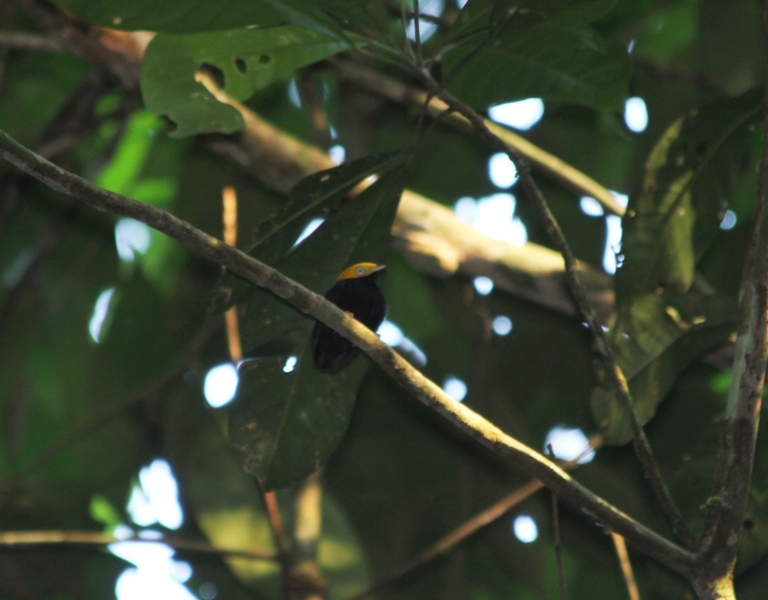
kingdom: Animalia
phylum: Chordata
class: Aves
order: Passeriformes
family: Pipridae
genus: Pipra
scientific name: Pipra erythrocephala
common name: Golden-headed manakin
